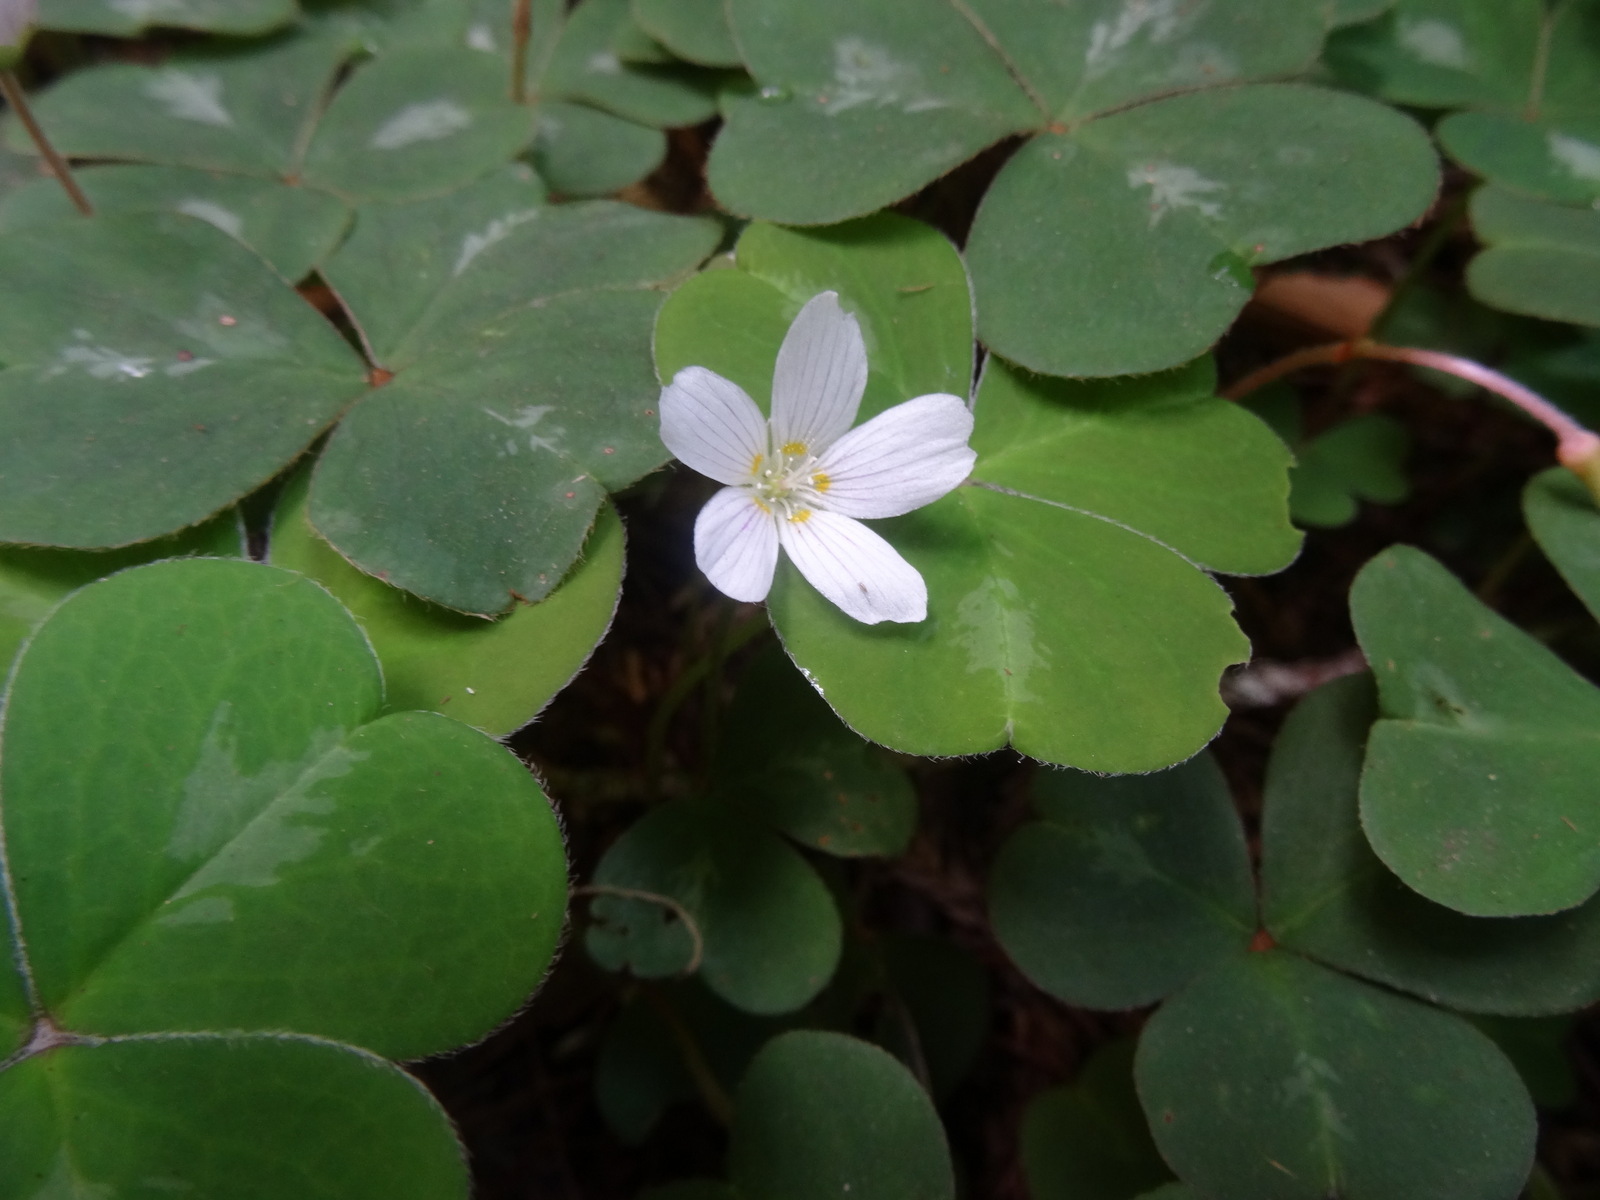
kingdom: Plantae
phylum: Tracheophyta
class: Magnoliopsida
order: Oxalidales
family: Oxalidaceae
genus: Oxalis
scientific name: Oxalis oregana
